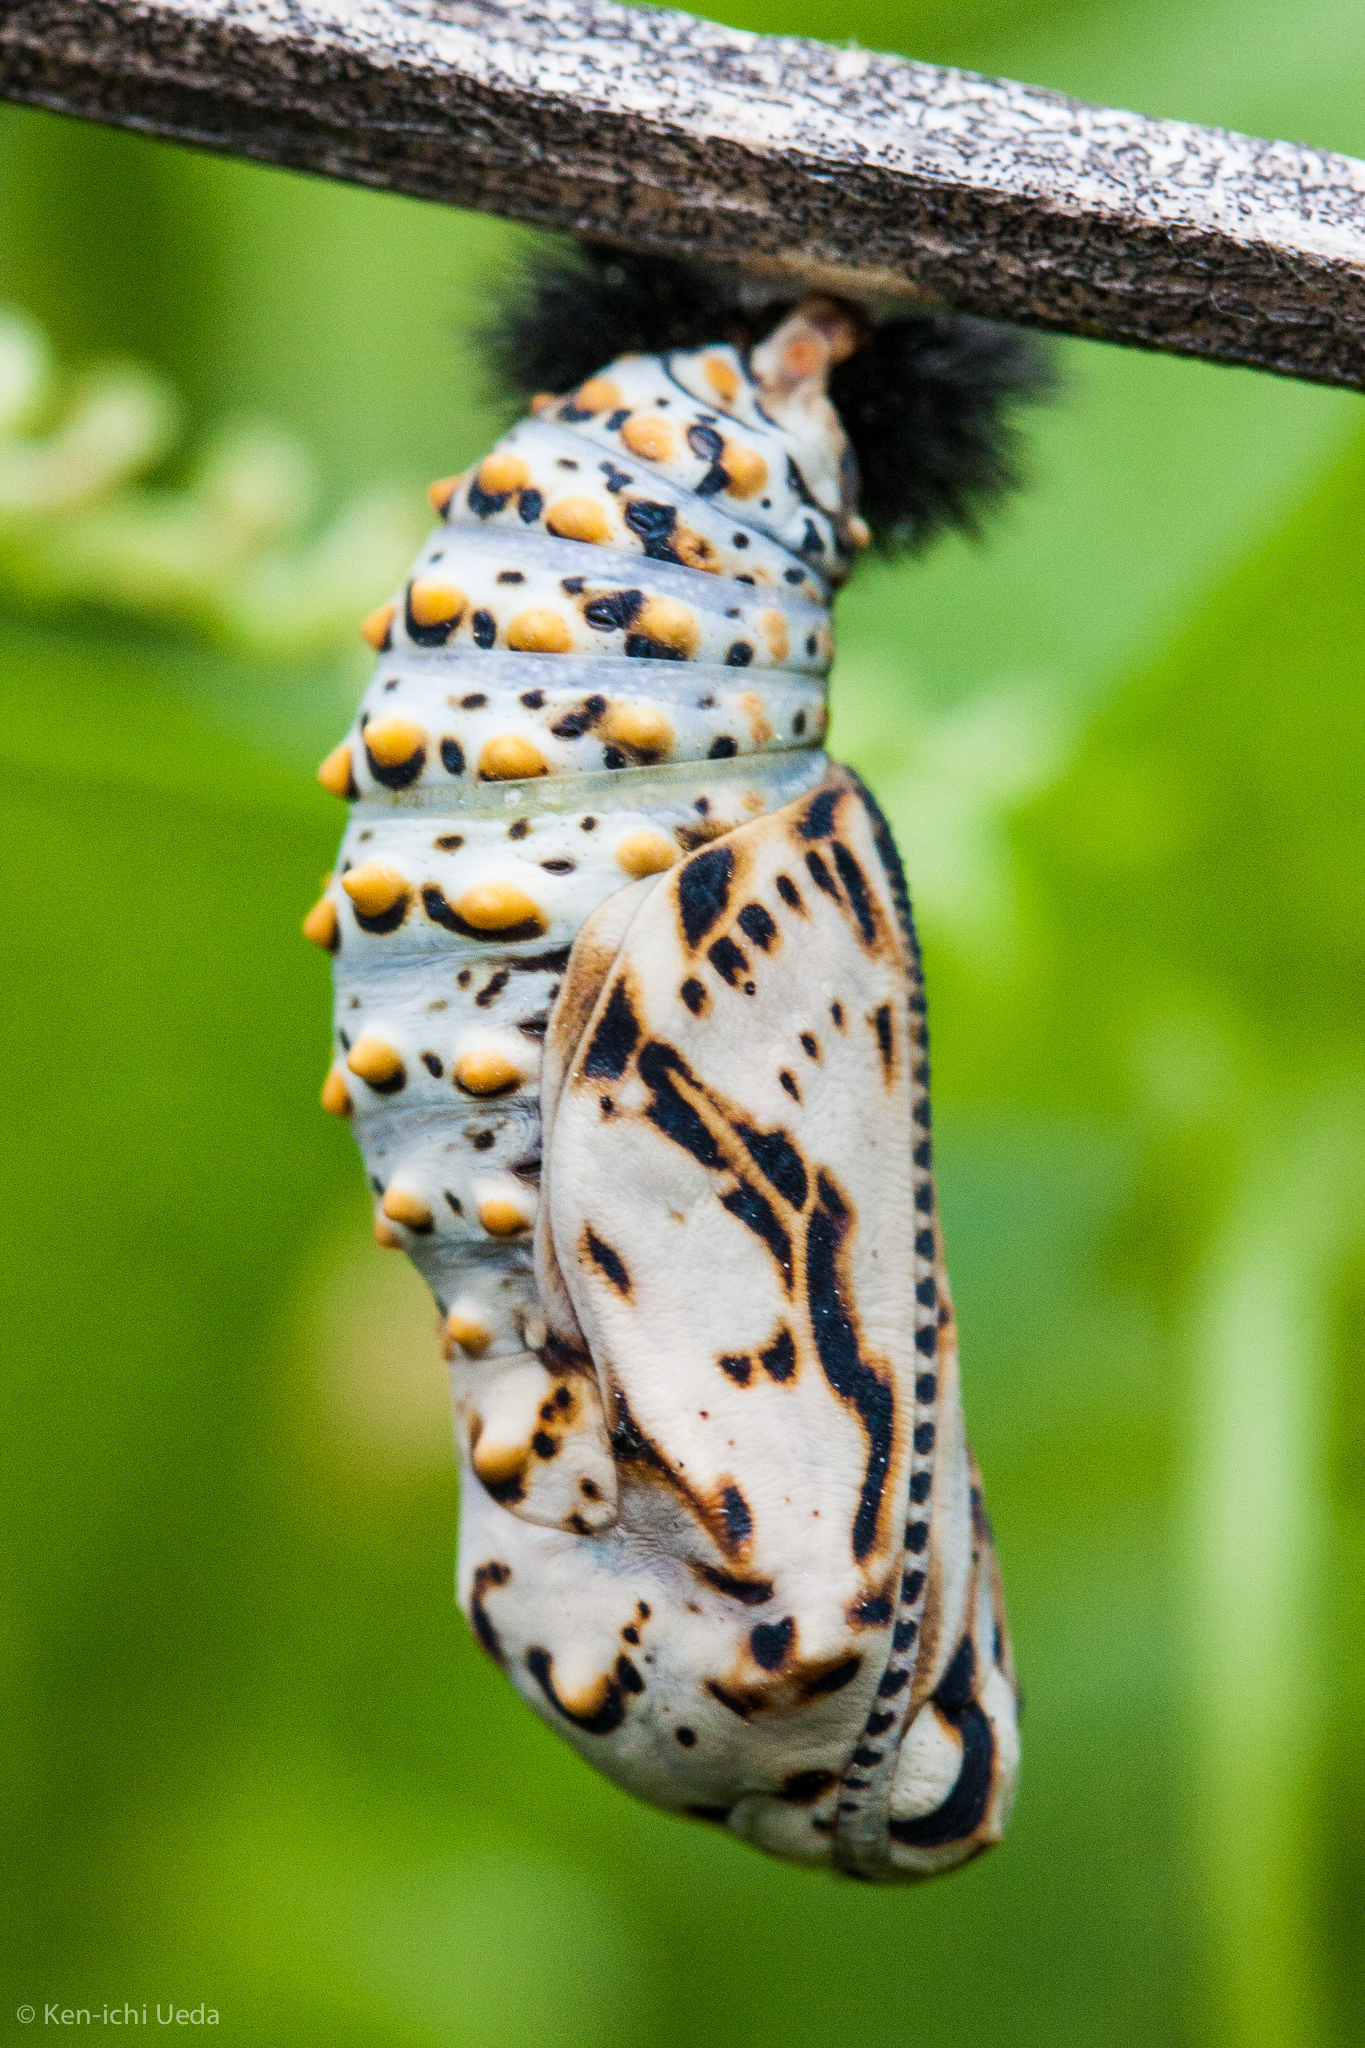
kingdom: Animalia
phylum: Arthropoda
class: Insecta
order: Lepidoptera
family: Nymphalidae
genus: Occidryas
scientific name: Occidryas chalcedona
